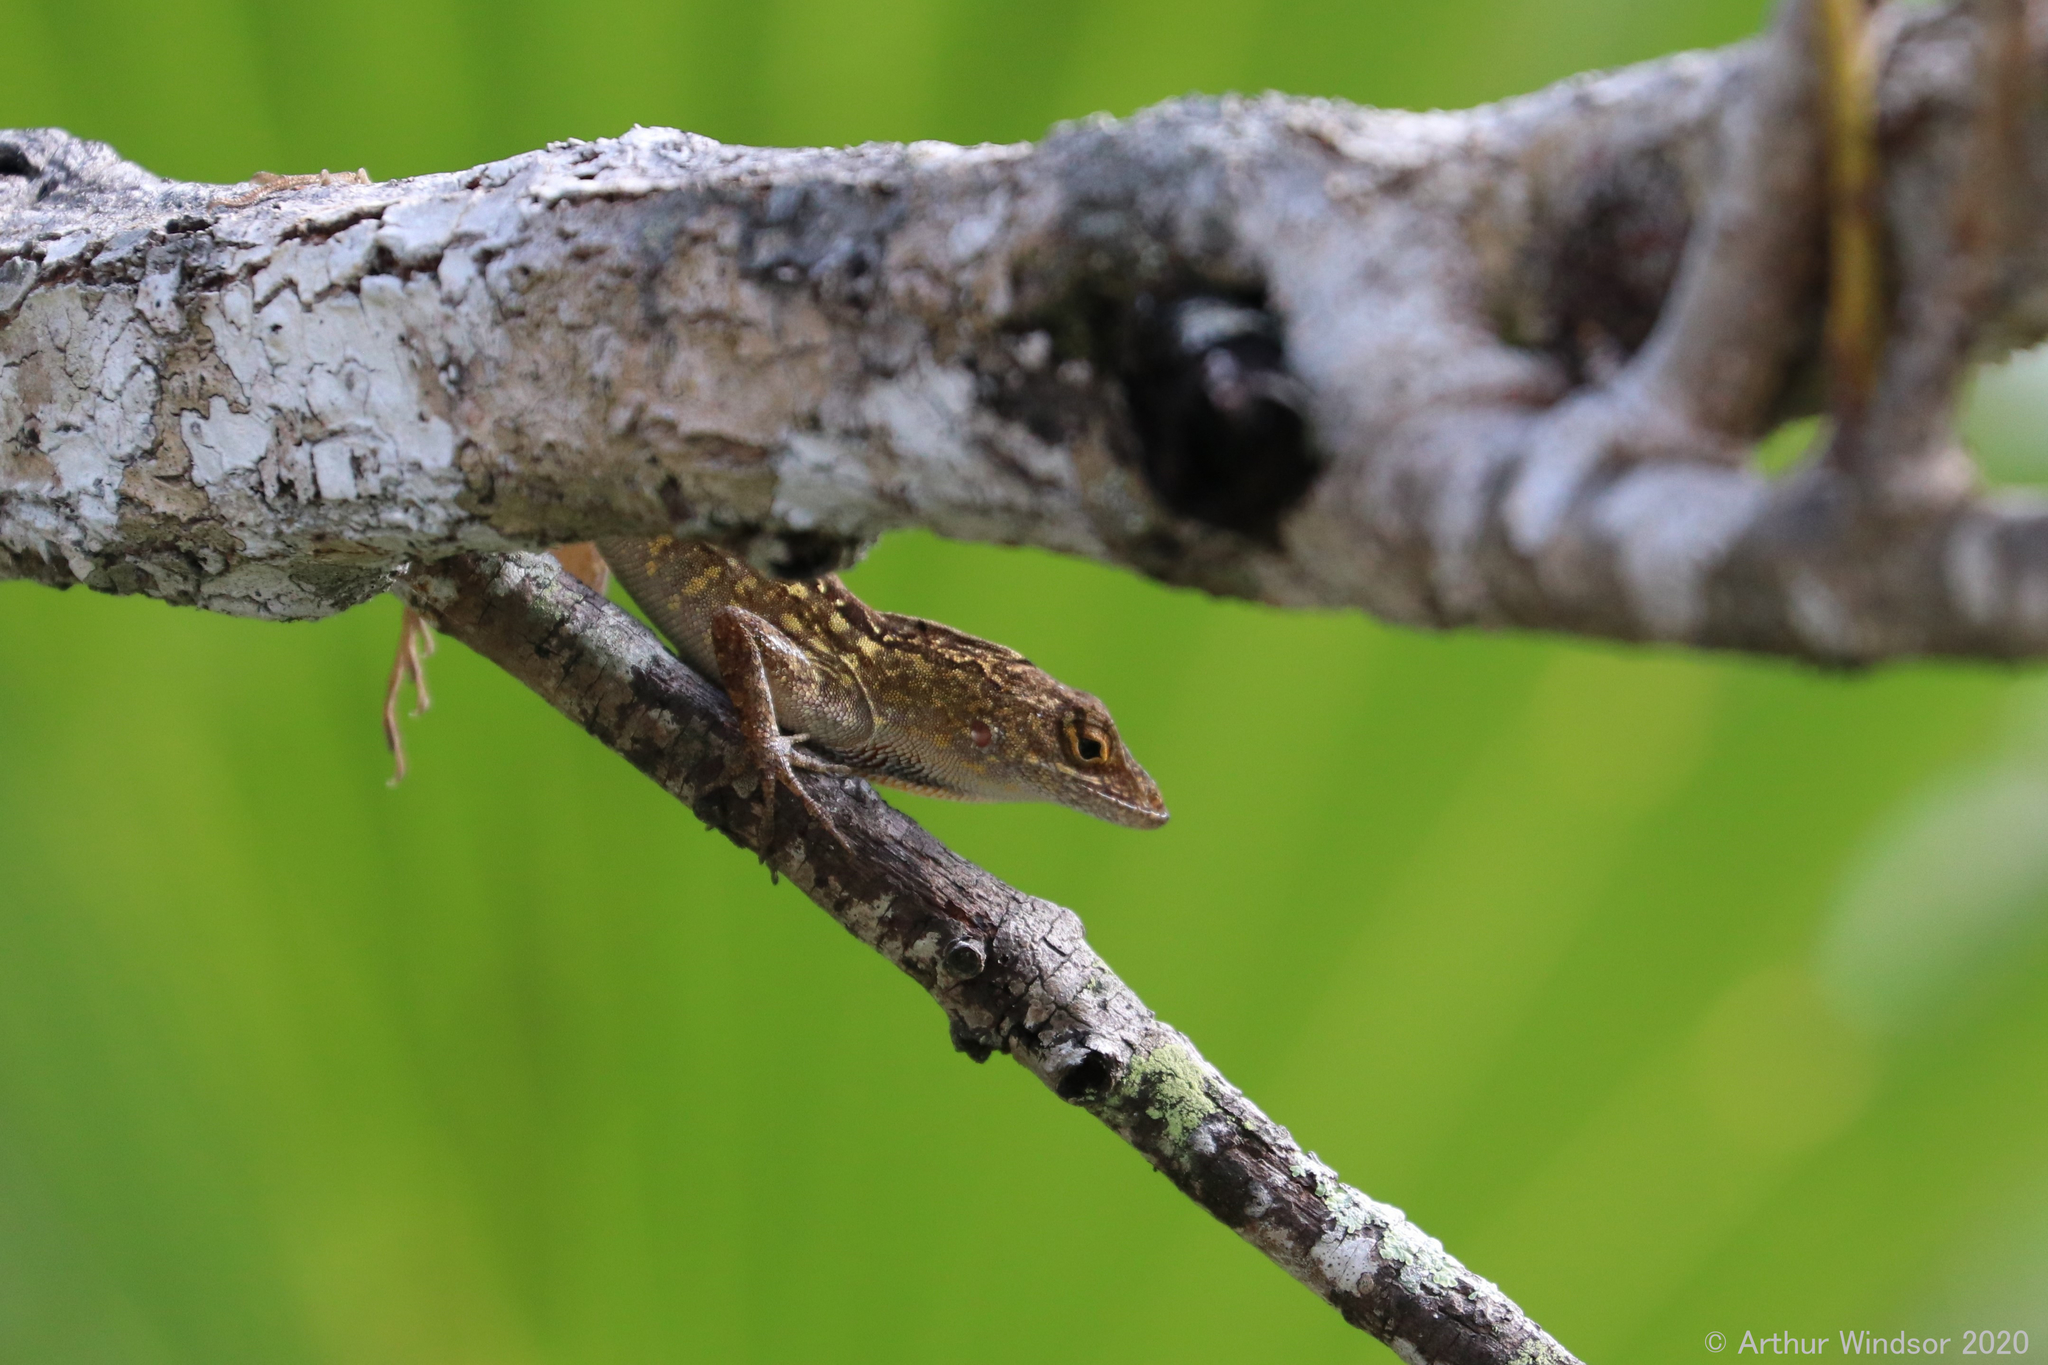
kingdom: Animalia
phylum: Chordata
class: Squamata
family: Dactyloidae
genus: Anolis
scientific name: Anolis sagrei
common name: Brown anole
